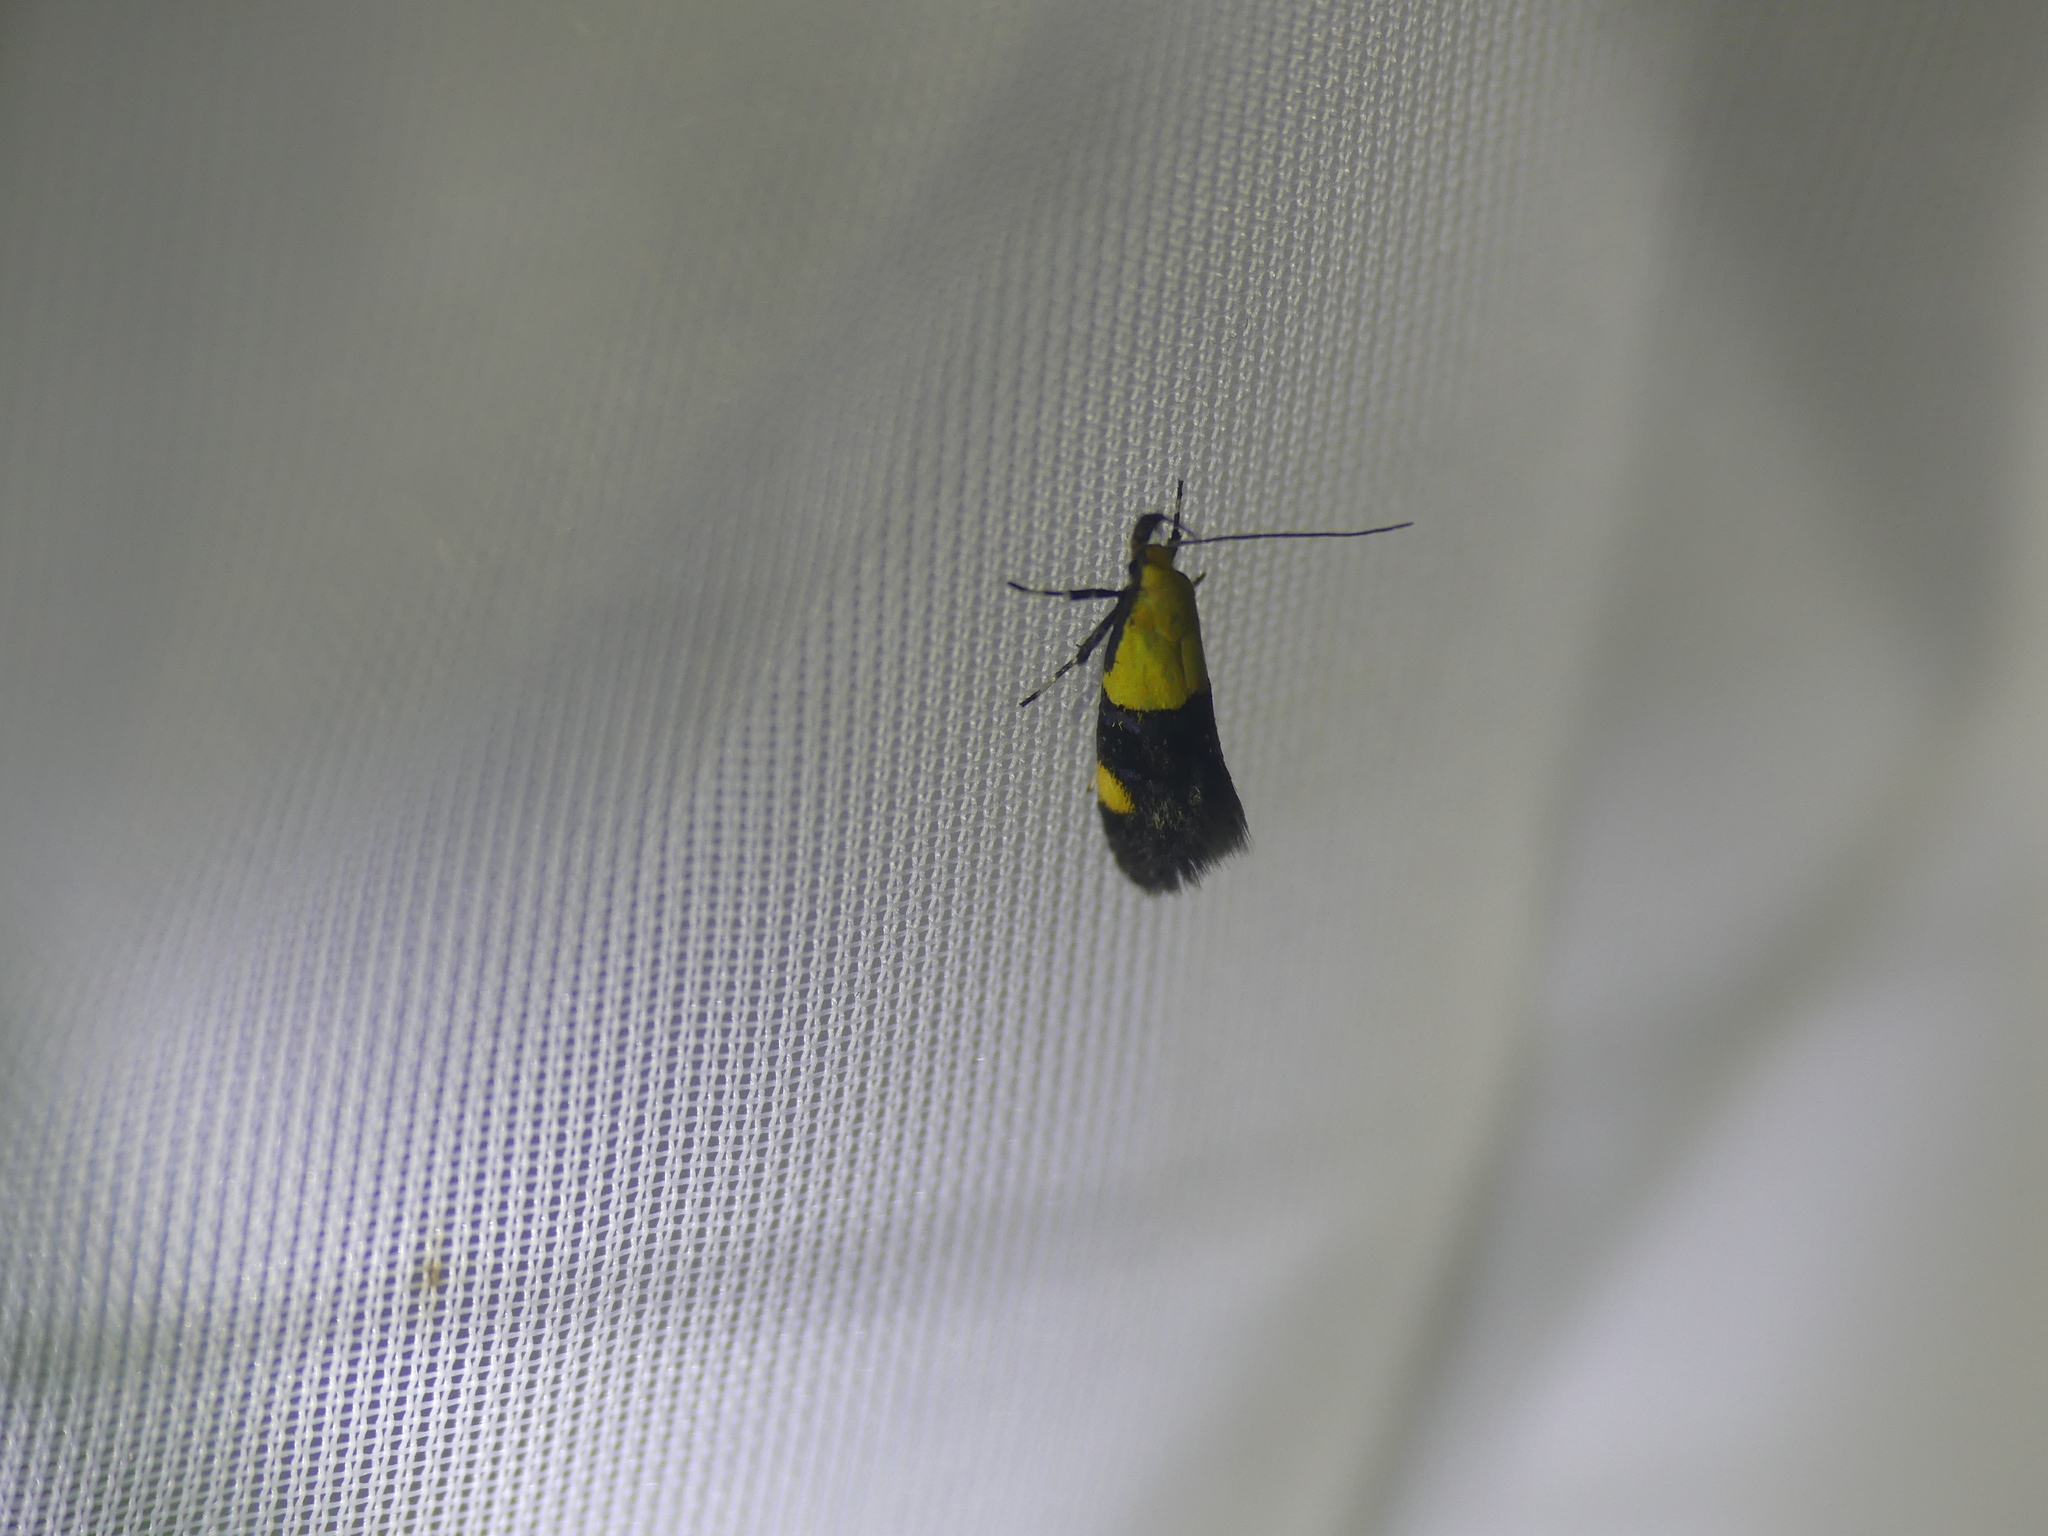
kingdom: Animalia
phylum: Arthropoda
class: Insecta
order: Lepidoptera
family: Oecophoridae
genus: Oecophora
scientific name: Oecophora bractella
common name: Gold-base tubic
